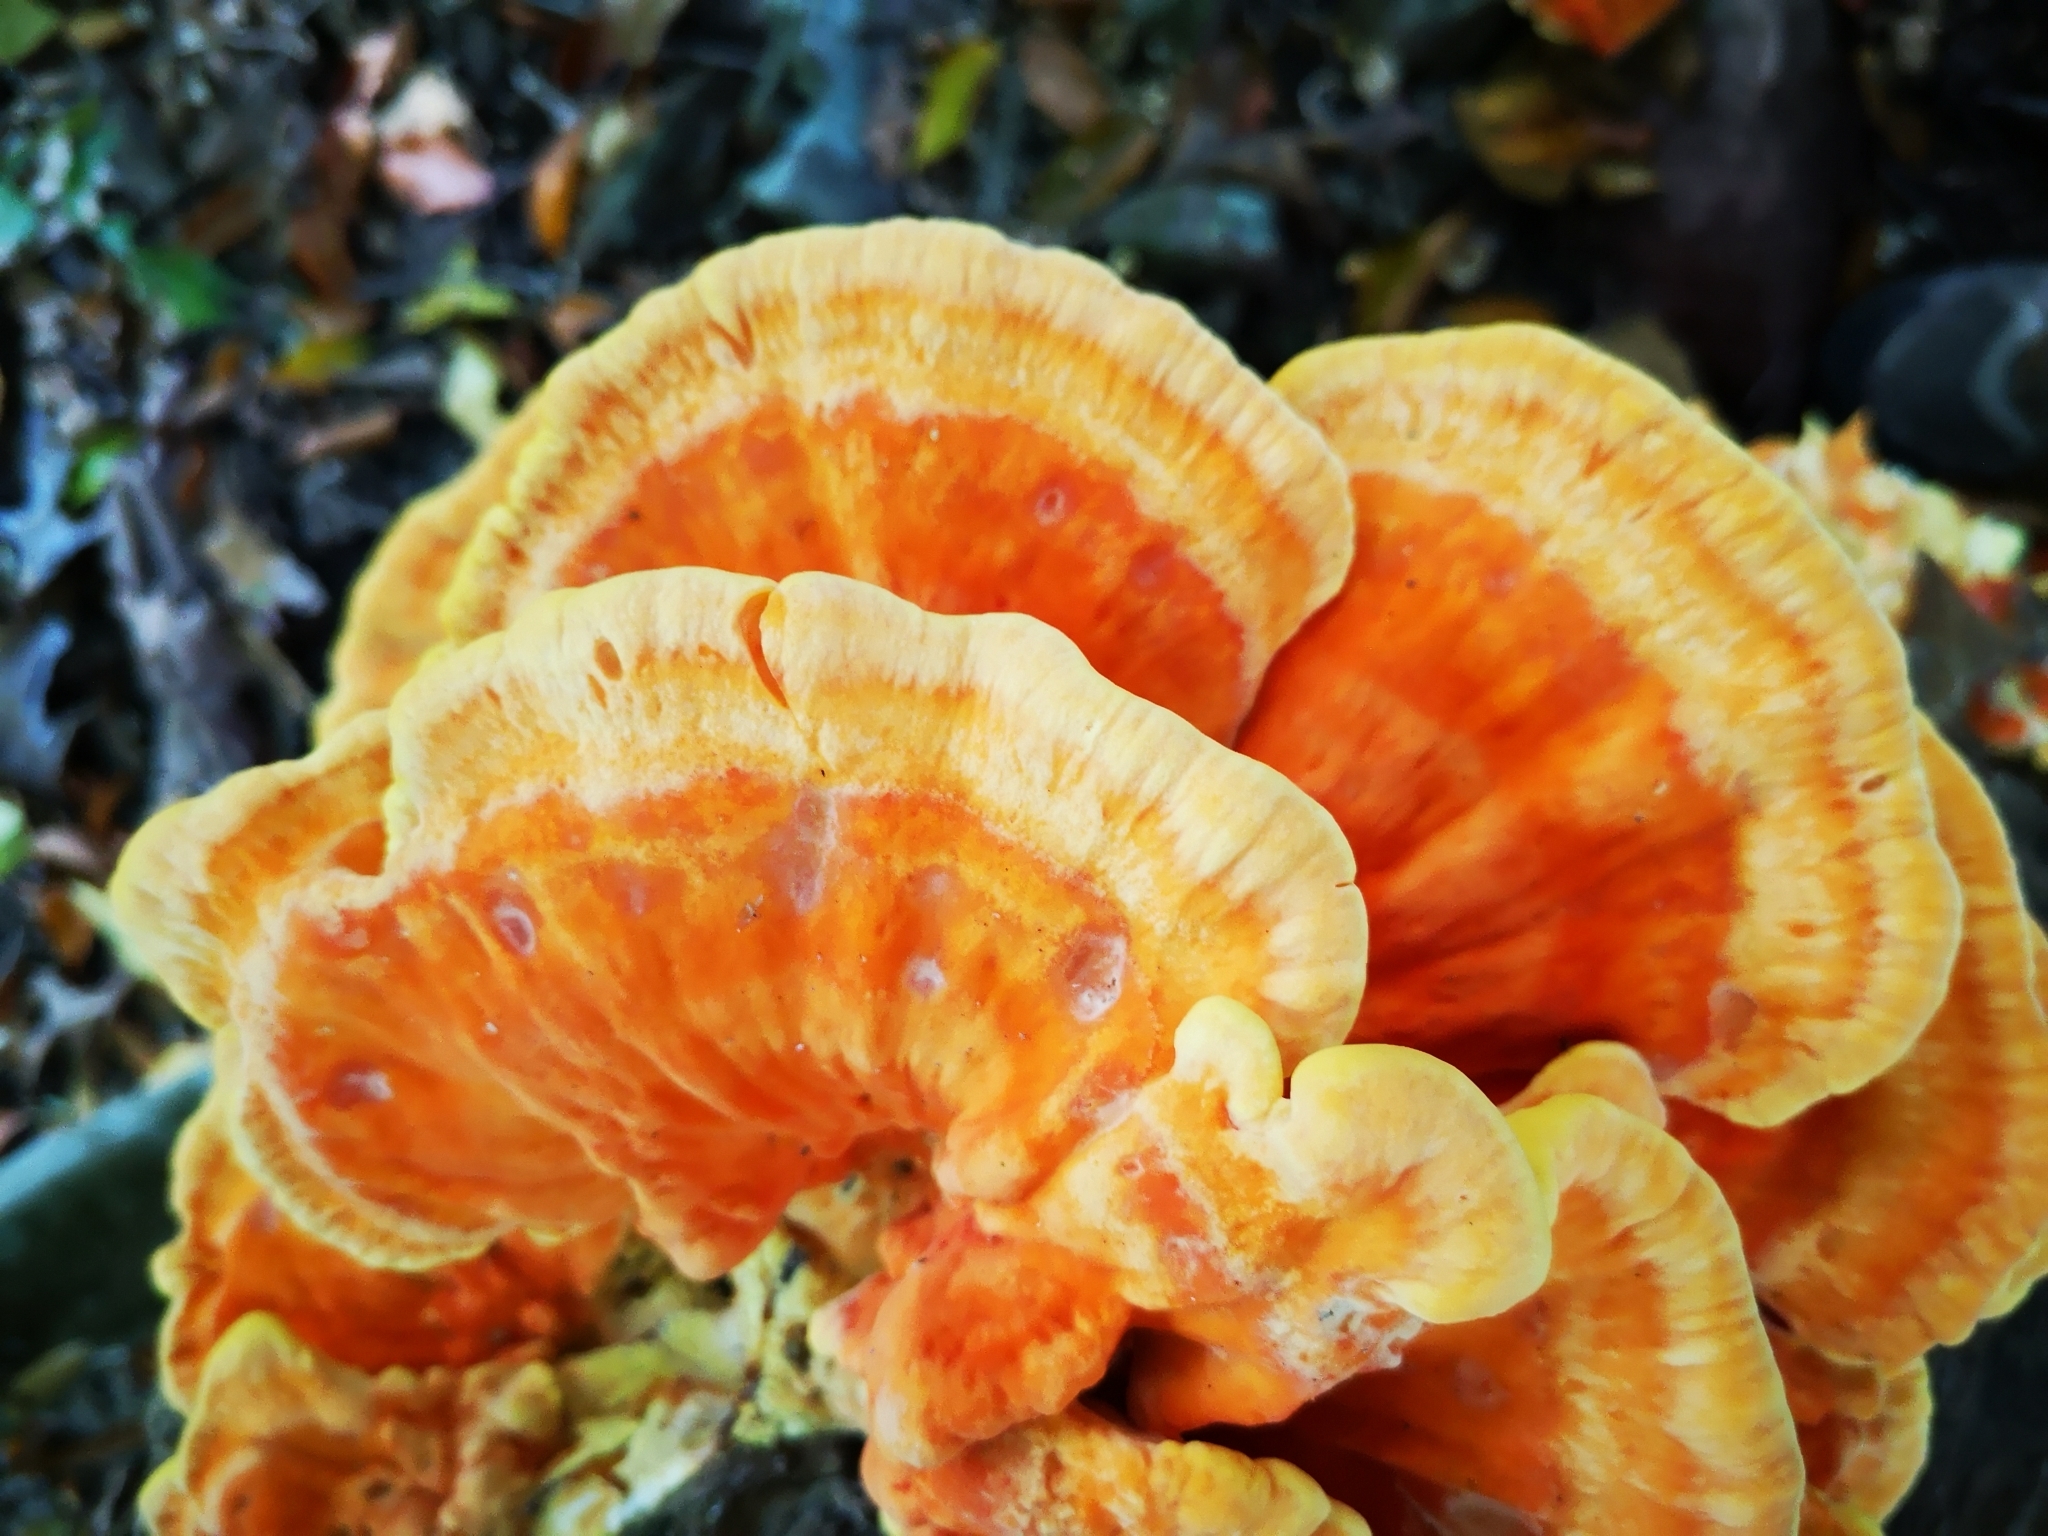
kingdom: Fungi
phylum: Basidiomycota
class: Agaricomycetes
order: Polyporales
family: Laetiporaceae
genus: Laetiporus
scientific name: Laetiporus sulphureus
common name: Chicken of the woods
